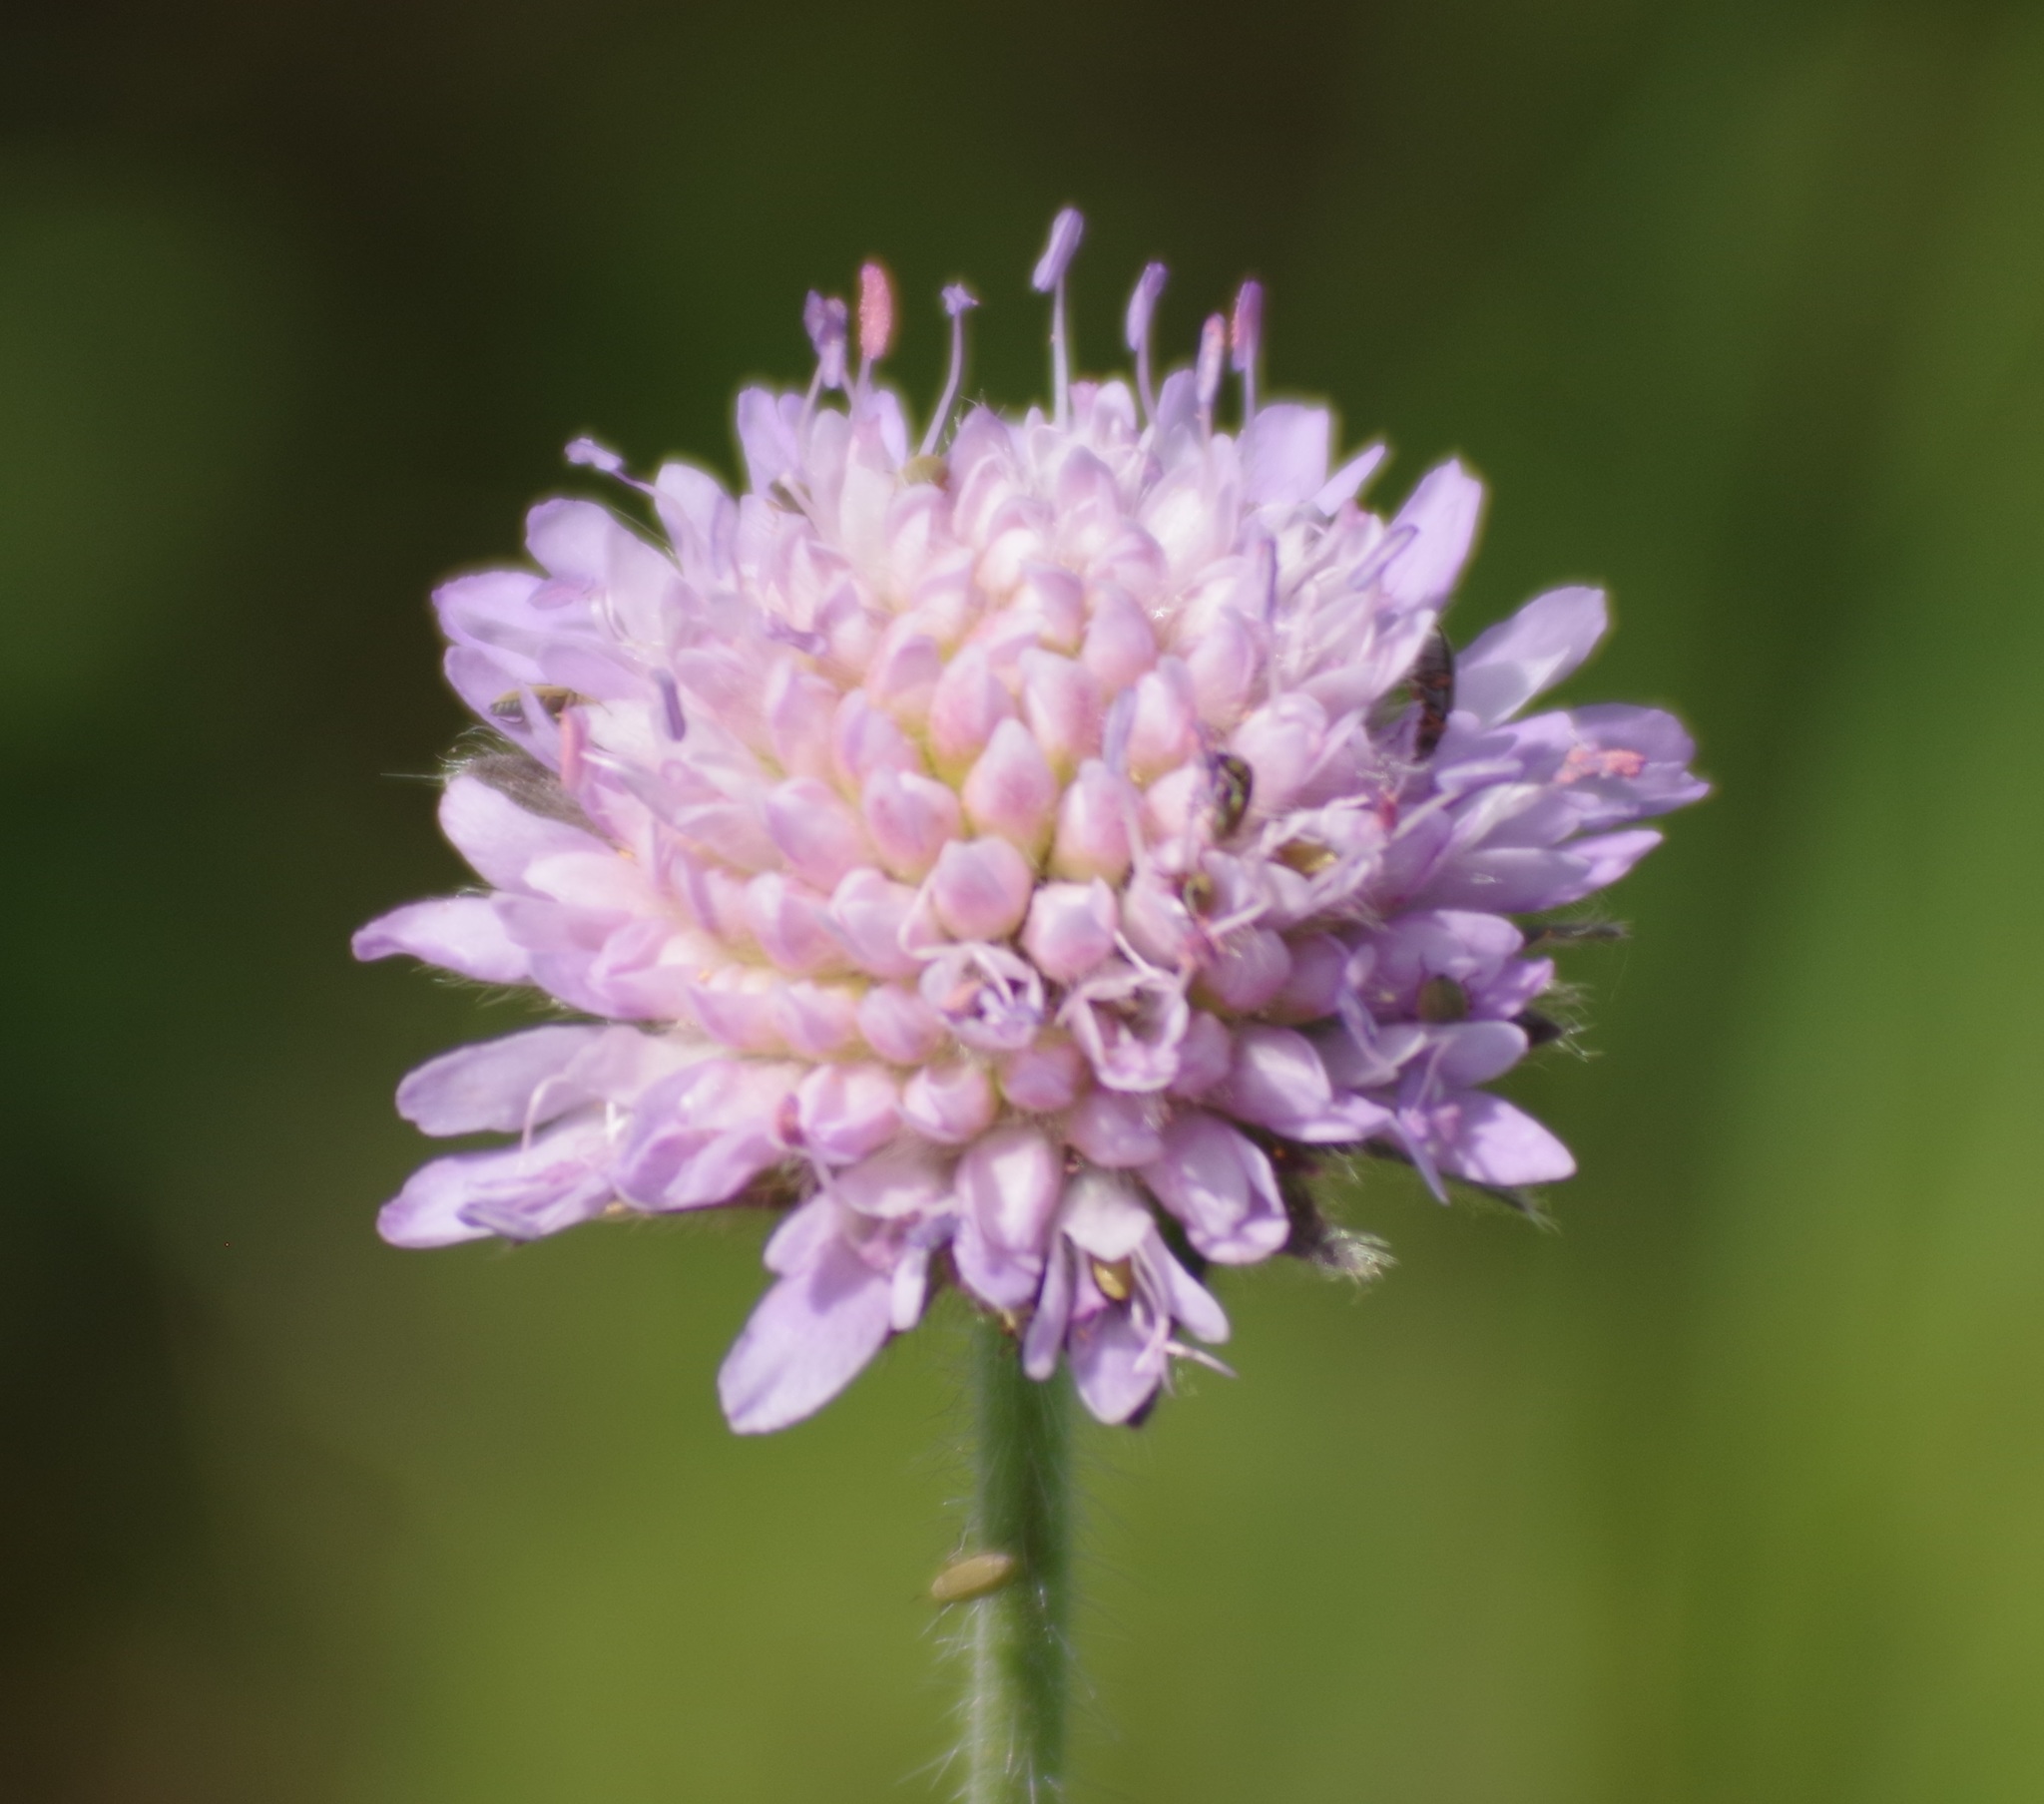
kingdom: Plantae
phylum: Tracheophyta
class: Magnoliopsida
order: Dipsacales
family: Caprifoliaceae
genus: Knautia
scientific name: Knautia arvensis
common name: Field scabiosa
